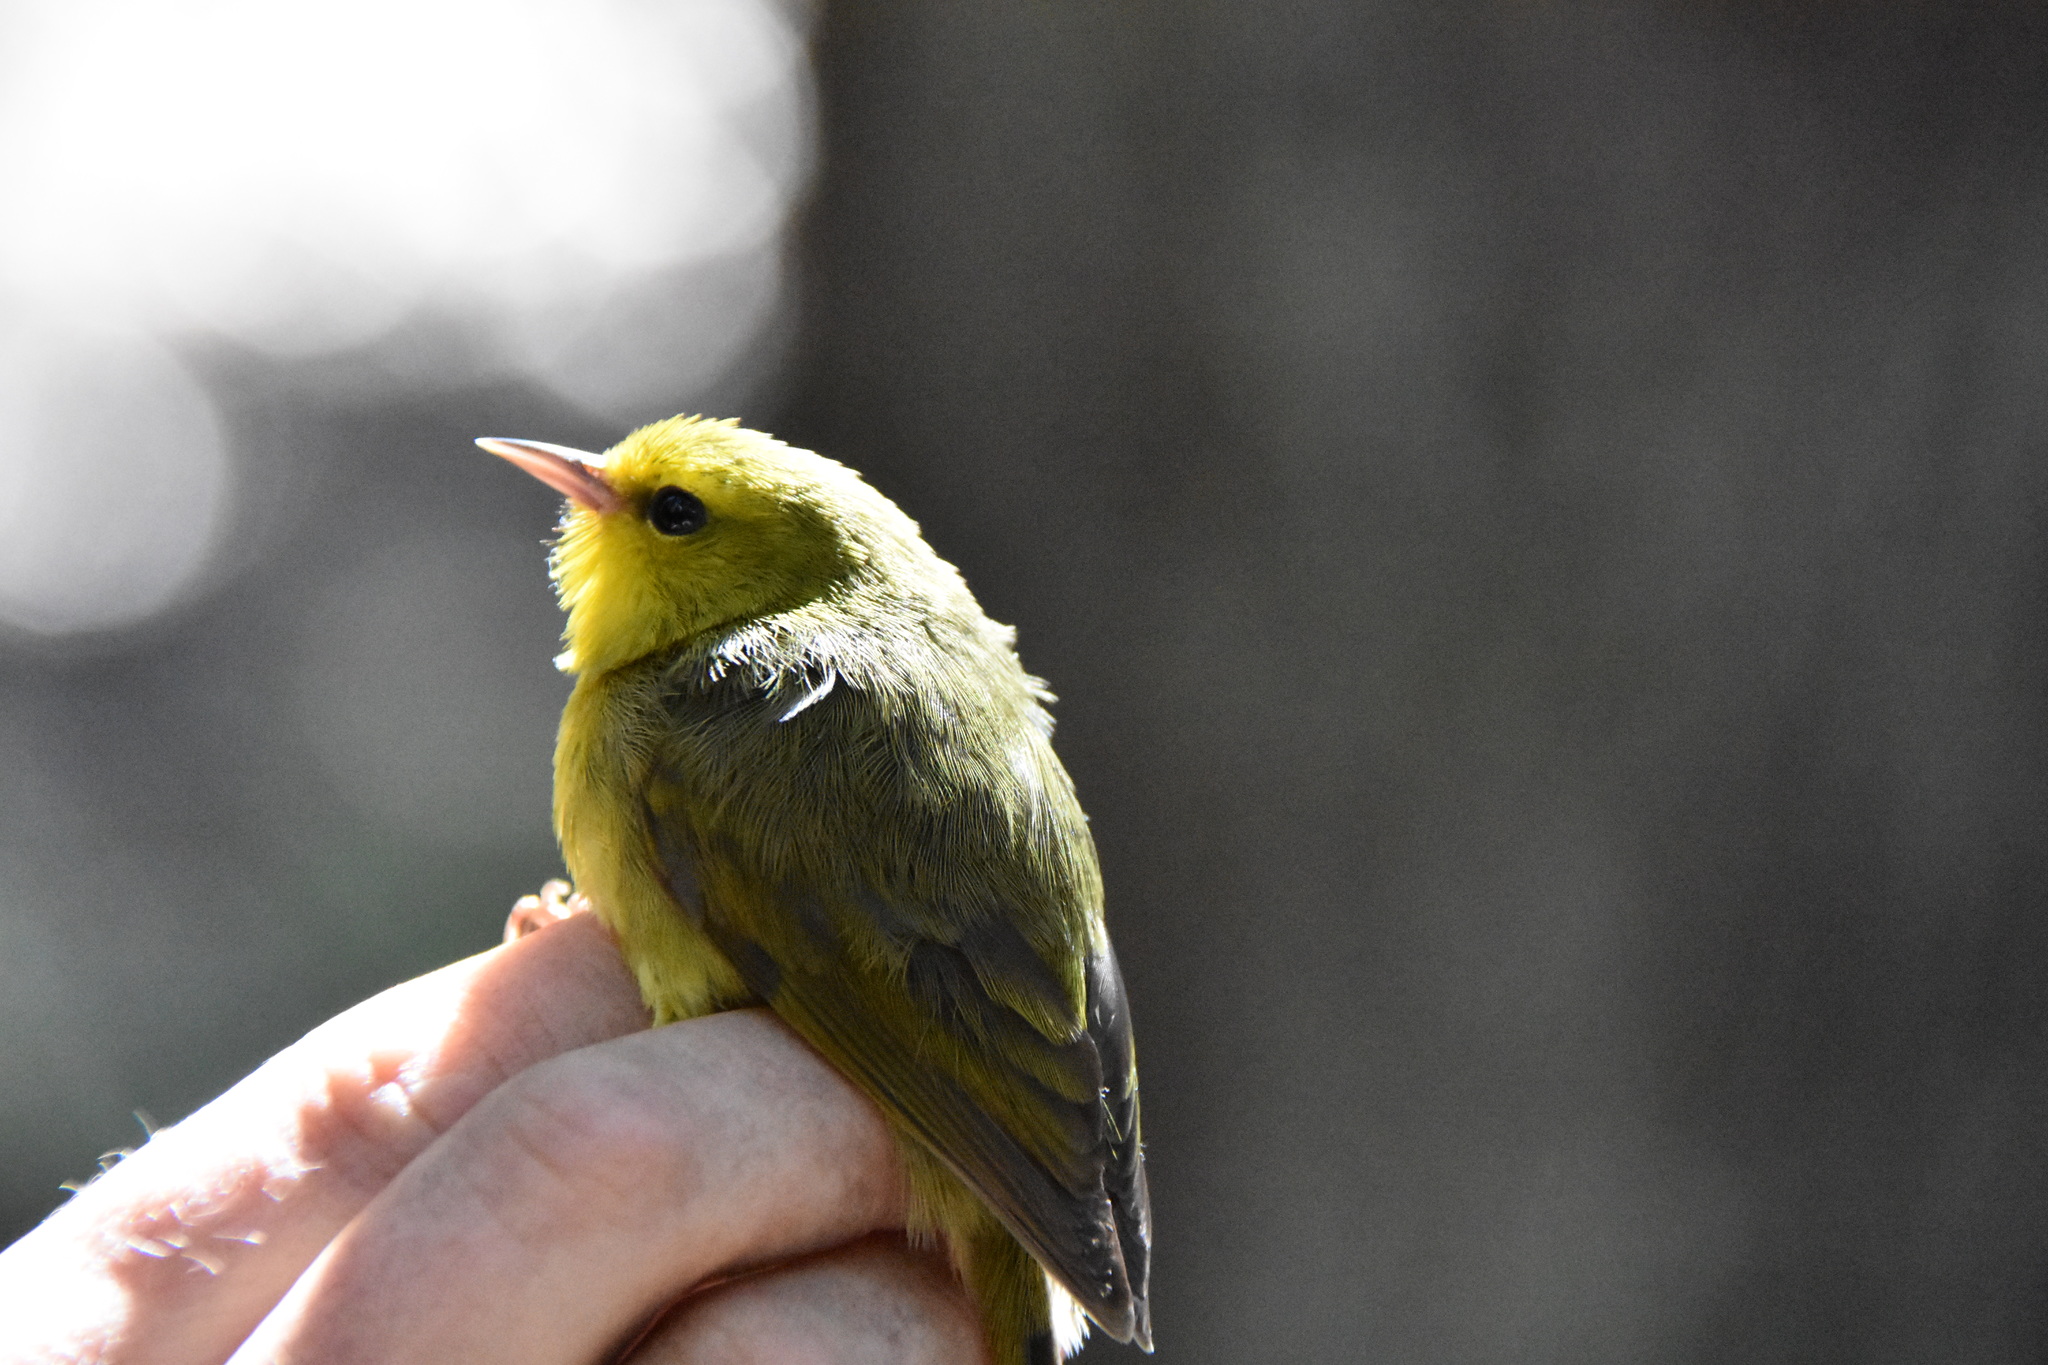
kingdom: Animalia
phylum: Chordata
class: Aves
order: Passeriformes
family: Fringillidae
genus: Paroreomyza
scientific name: Paroreomyza montana
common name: Maui alauahio
